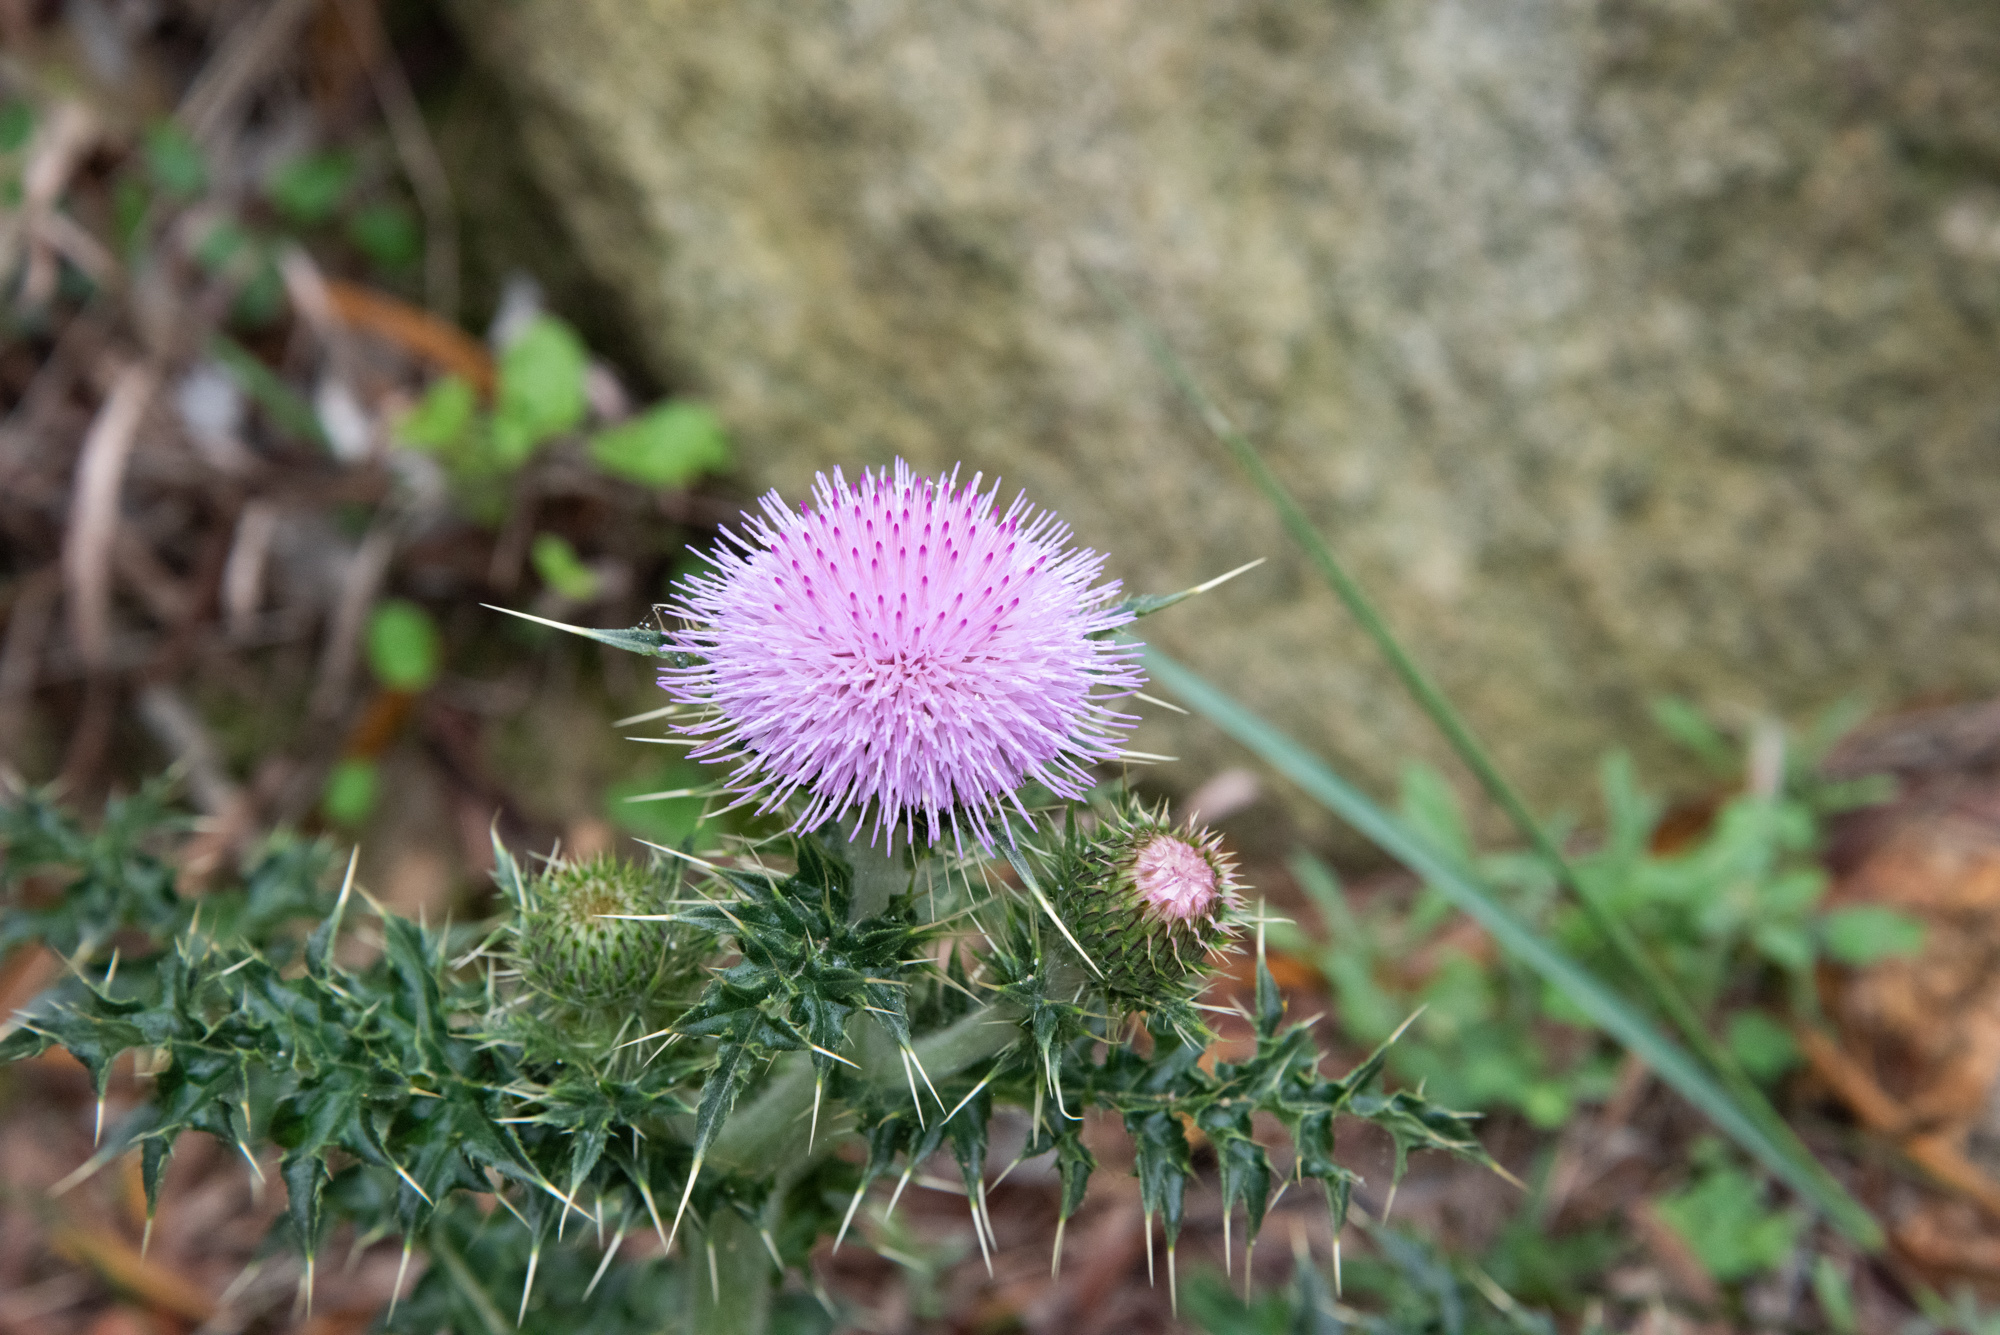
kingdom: Plantae
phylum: Tracheophyta
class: Magnoliopsida
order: Asterales
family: Asteraceae
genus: Cirsium
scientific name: Cirsium japonicum
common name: Japanese thistle
